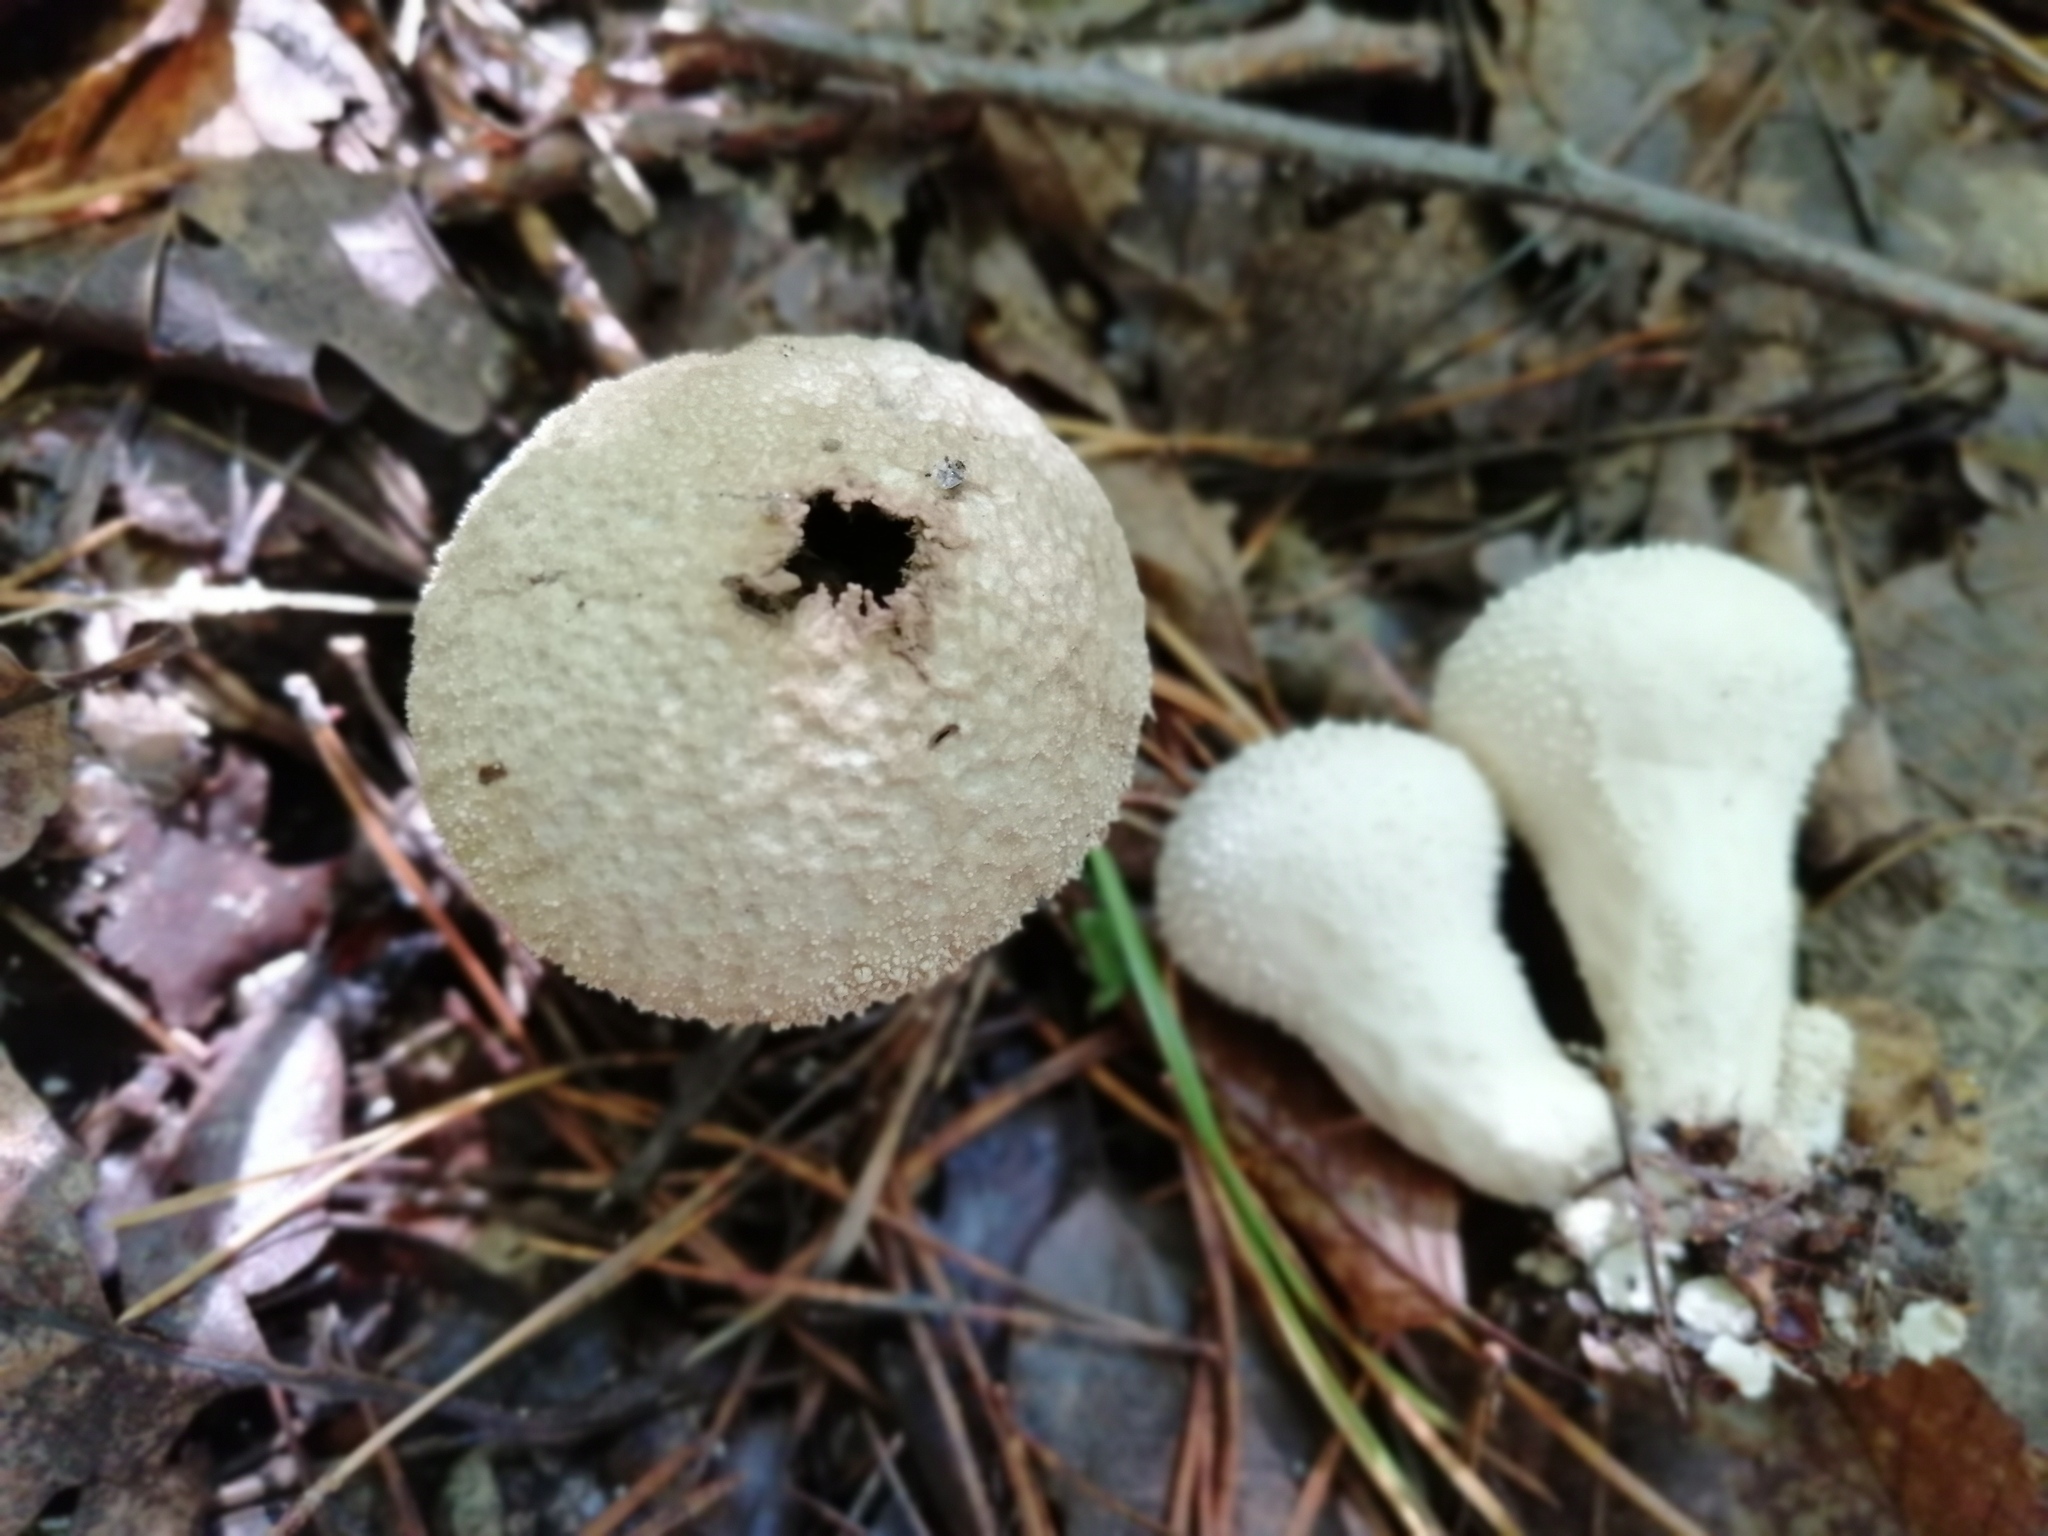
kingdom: Fungi
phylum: Basidiomycota
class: Agaricomycetes
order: Agaricales
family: Lycoperdaceae
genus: Lycoperdon
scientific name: Lycoperdon perlatum
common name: Common puffball
